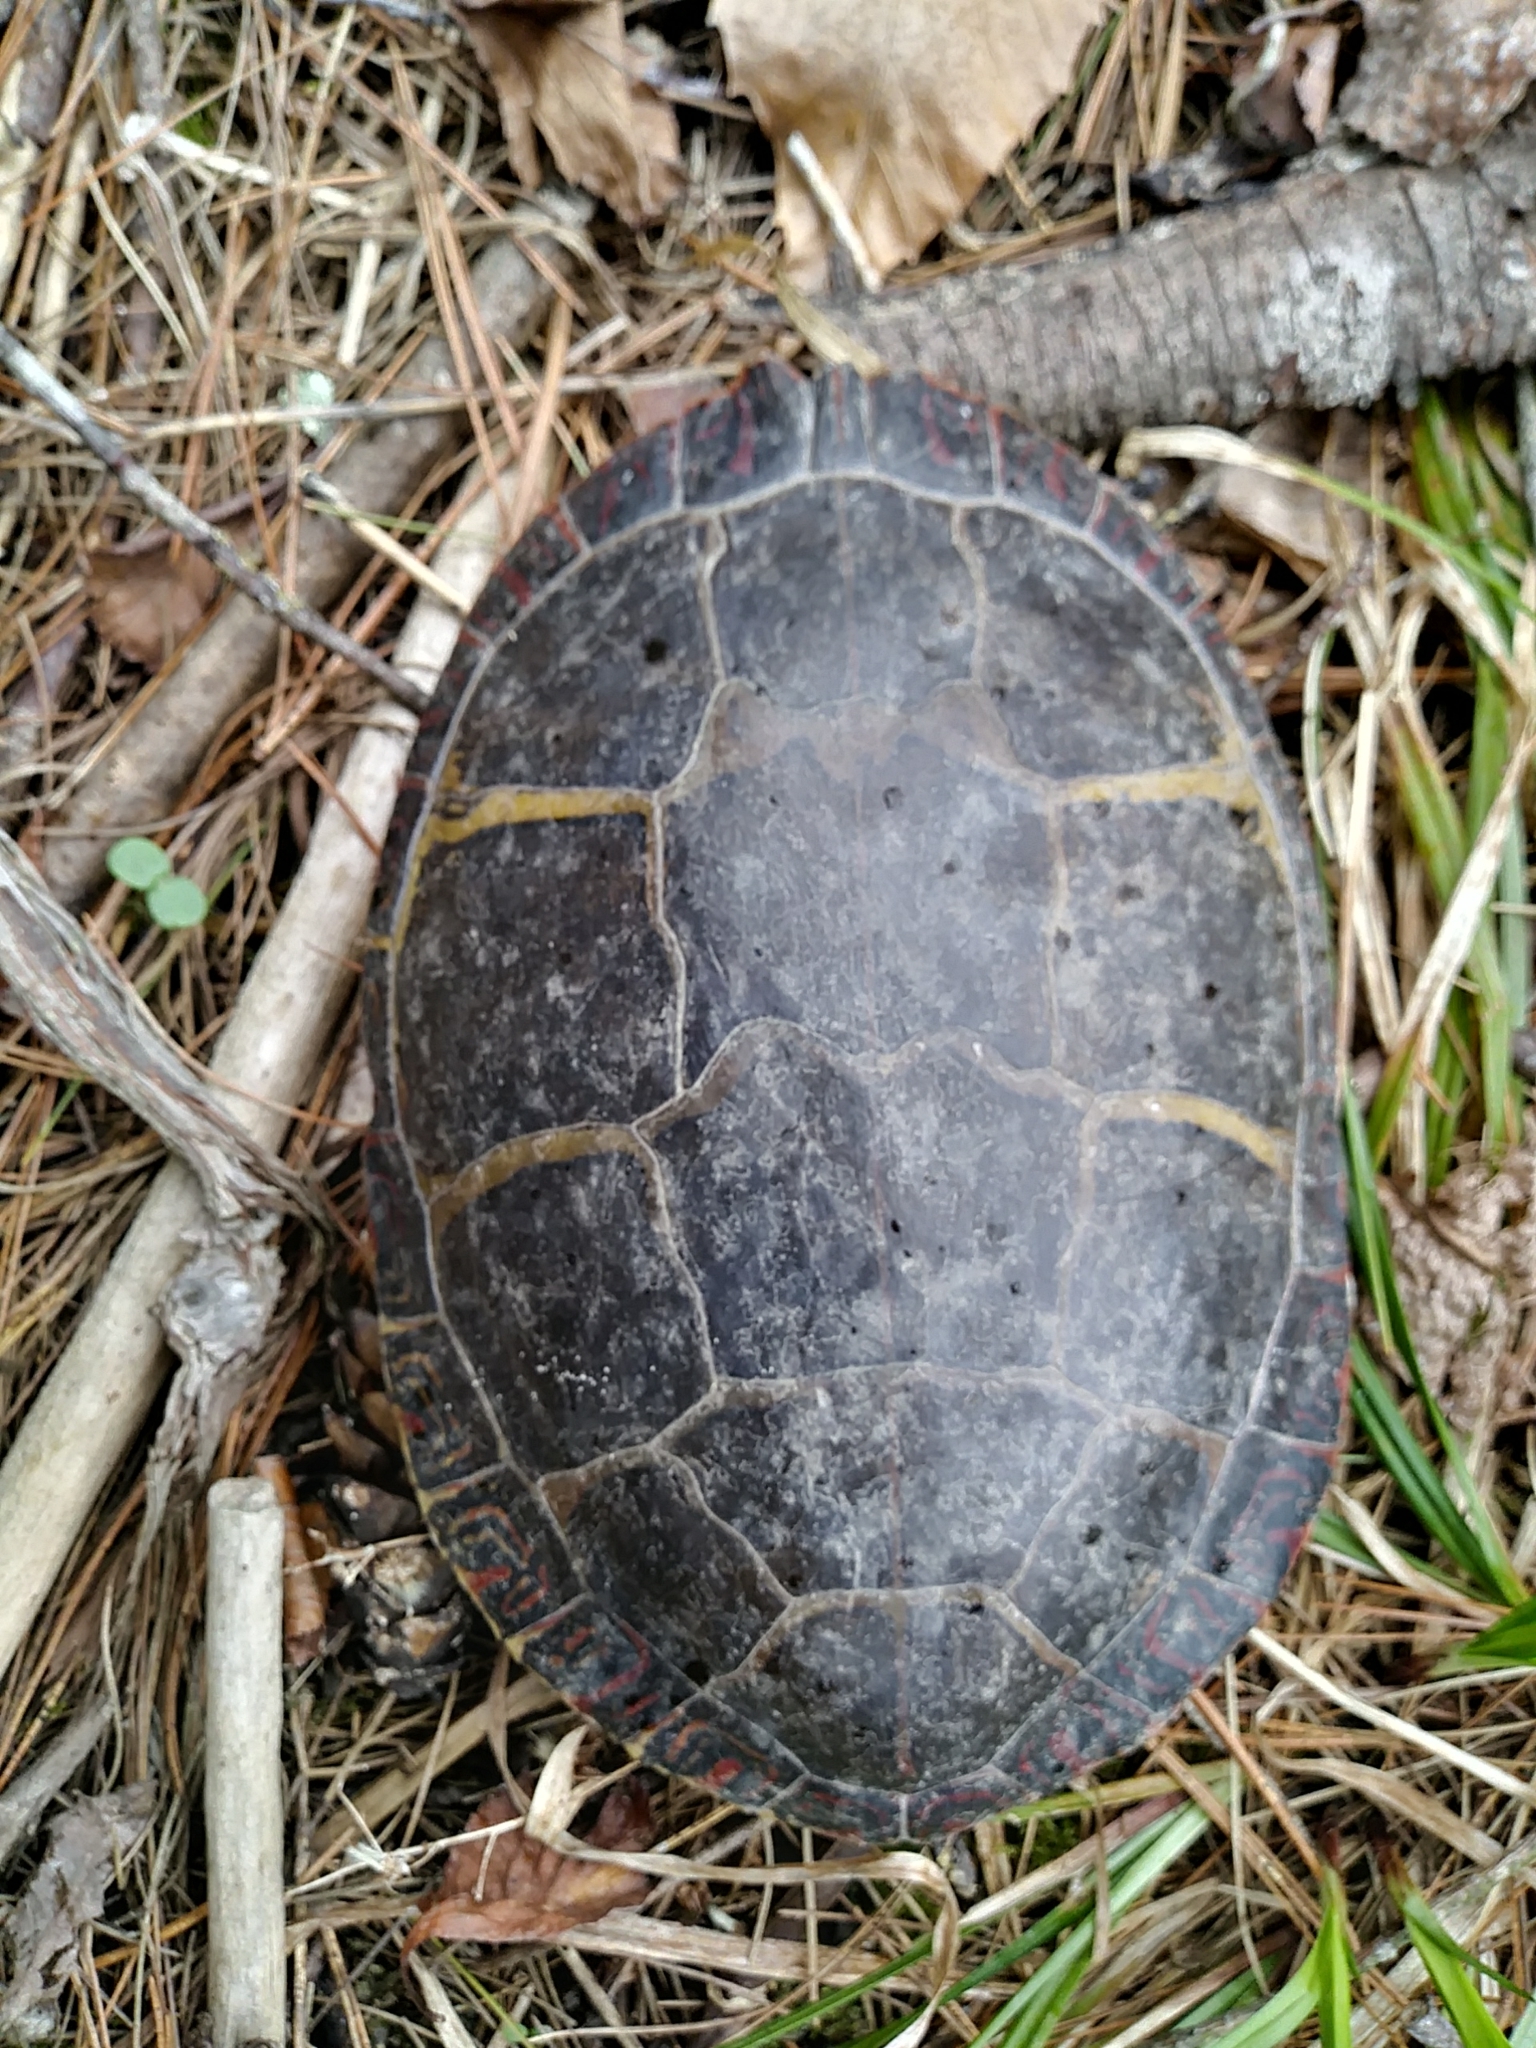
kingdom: Animalia
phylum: Chordata
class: Testudines
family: Emydidae
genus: Chrysemys
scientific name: Chrysemys picta
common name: Painted turtle
